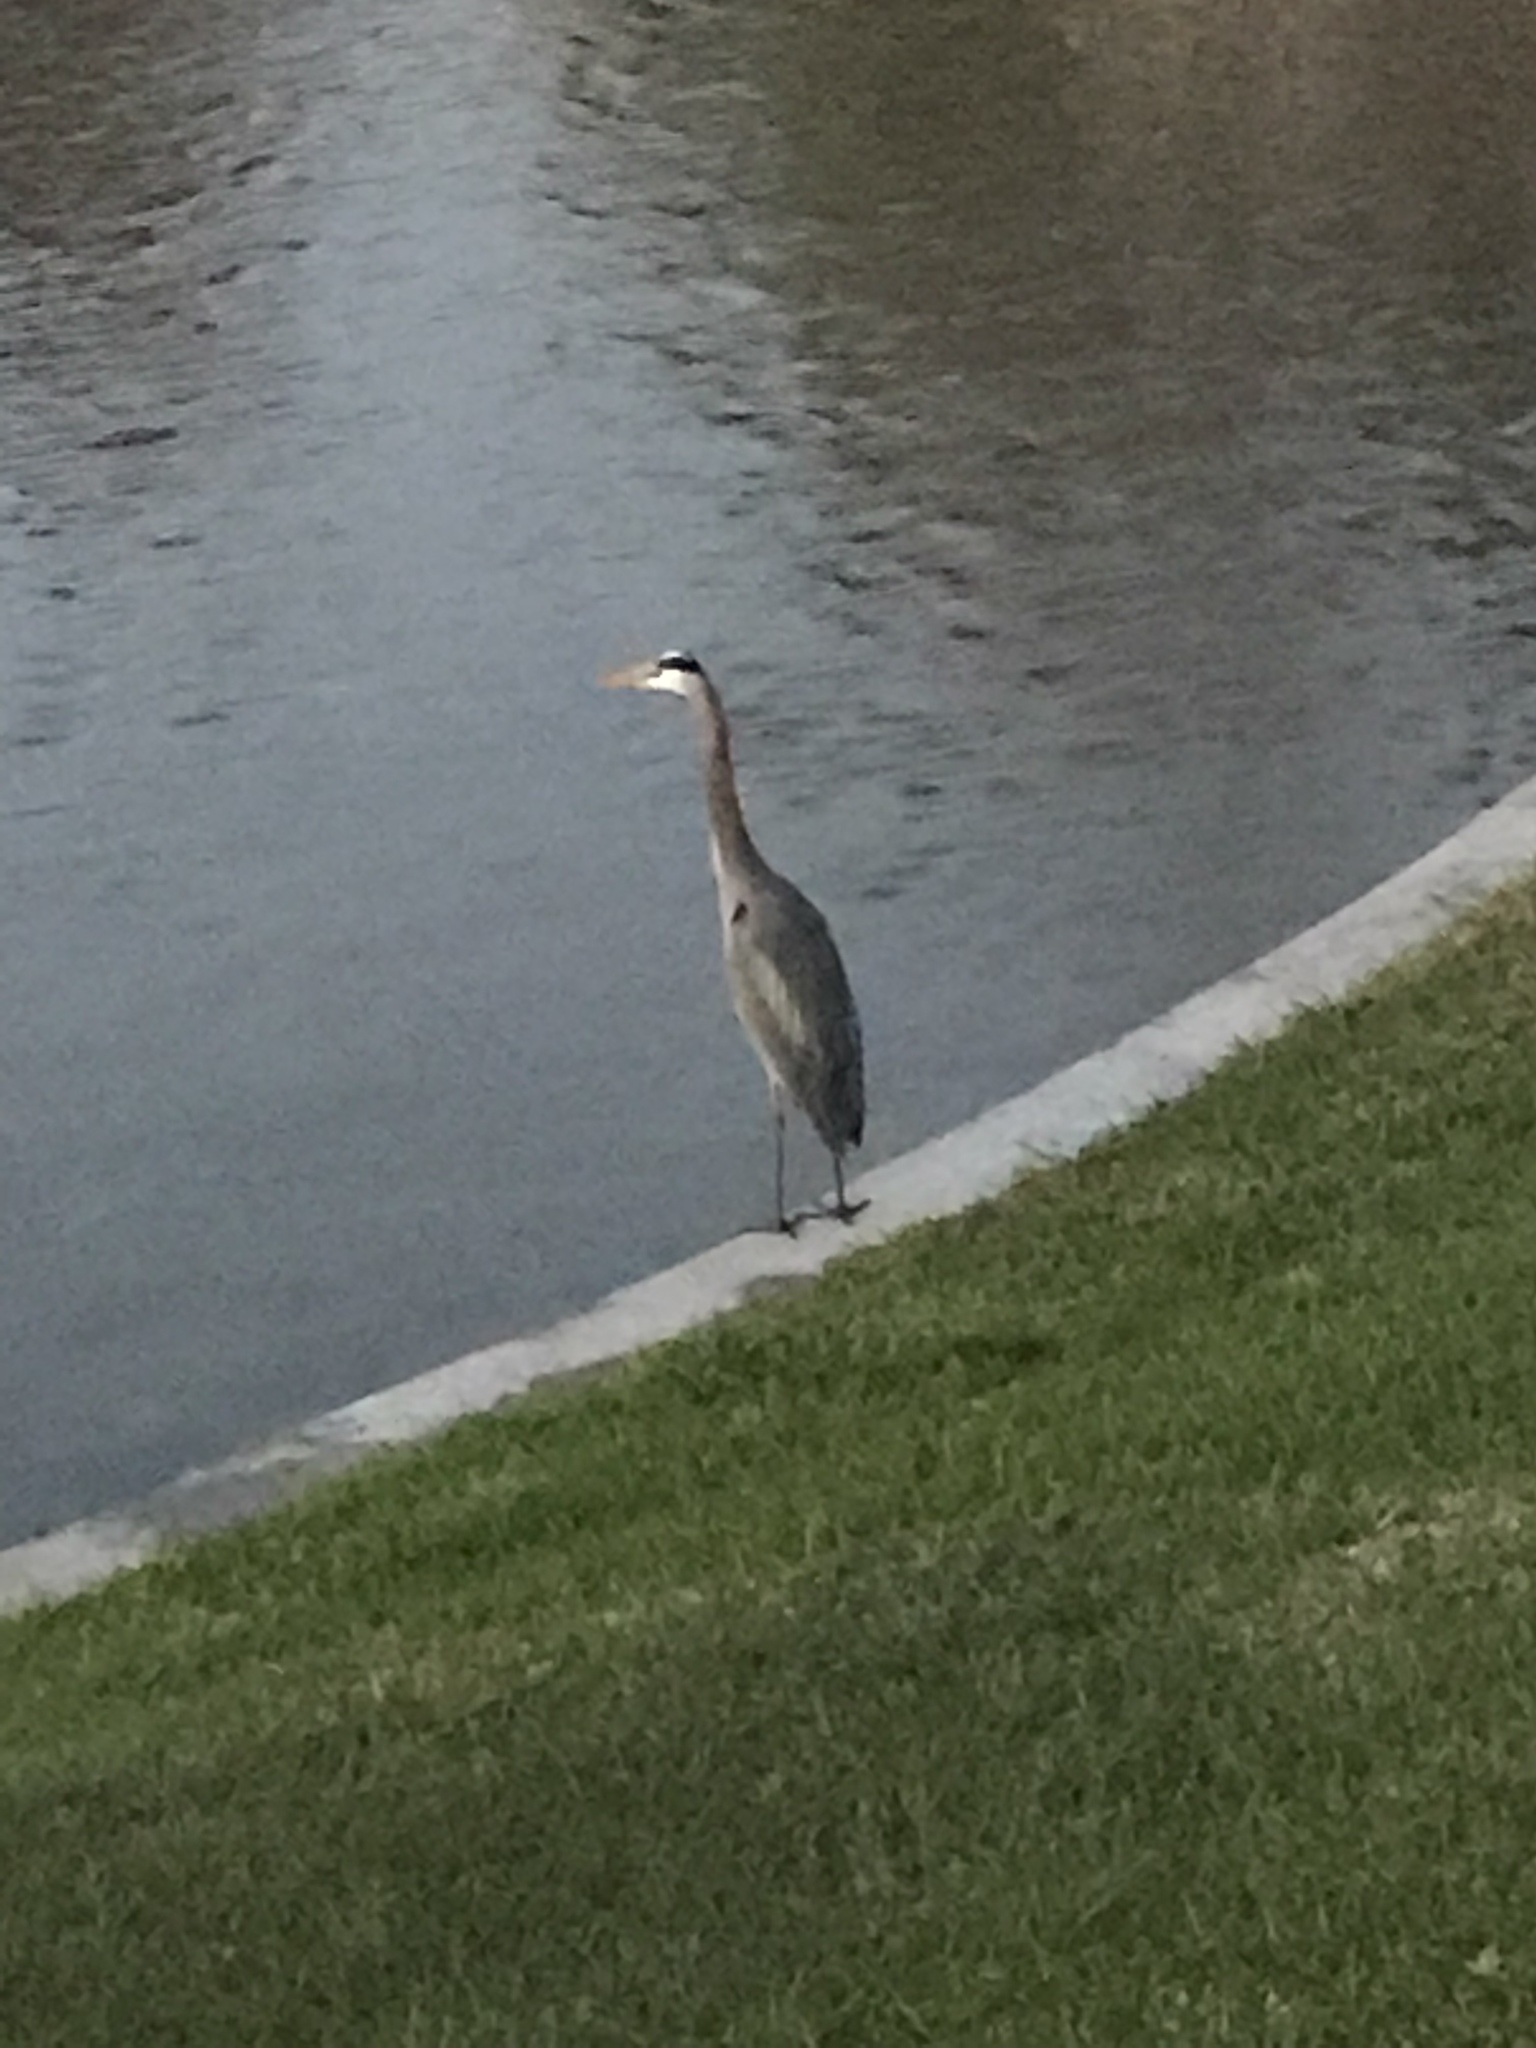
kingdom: Animalia
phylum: Chordata
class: Aves
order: Pelecaniformes
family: Ardeidae
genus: Ardea
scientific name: Ardea herodias
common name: Great blue heron
